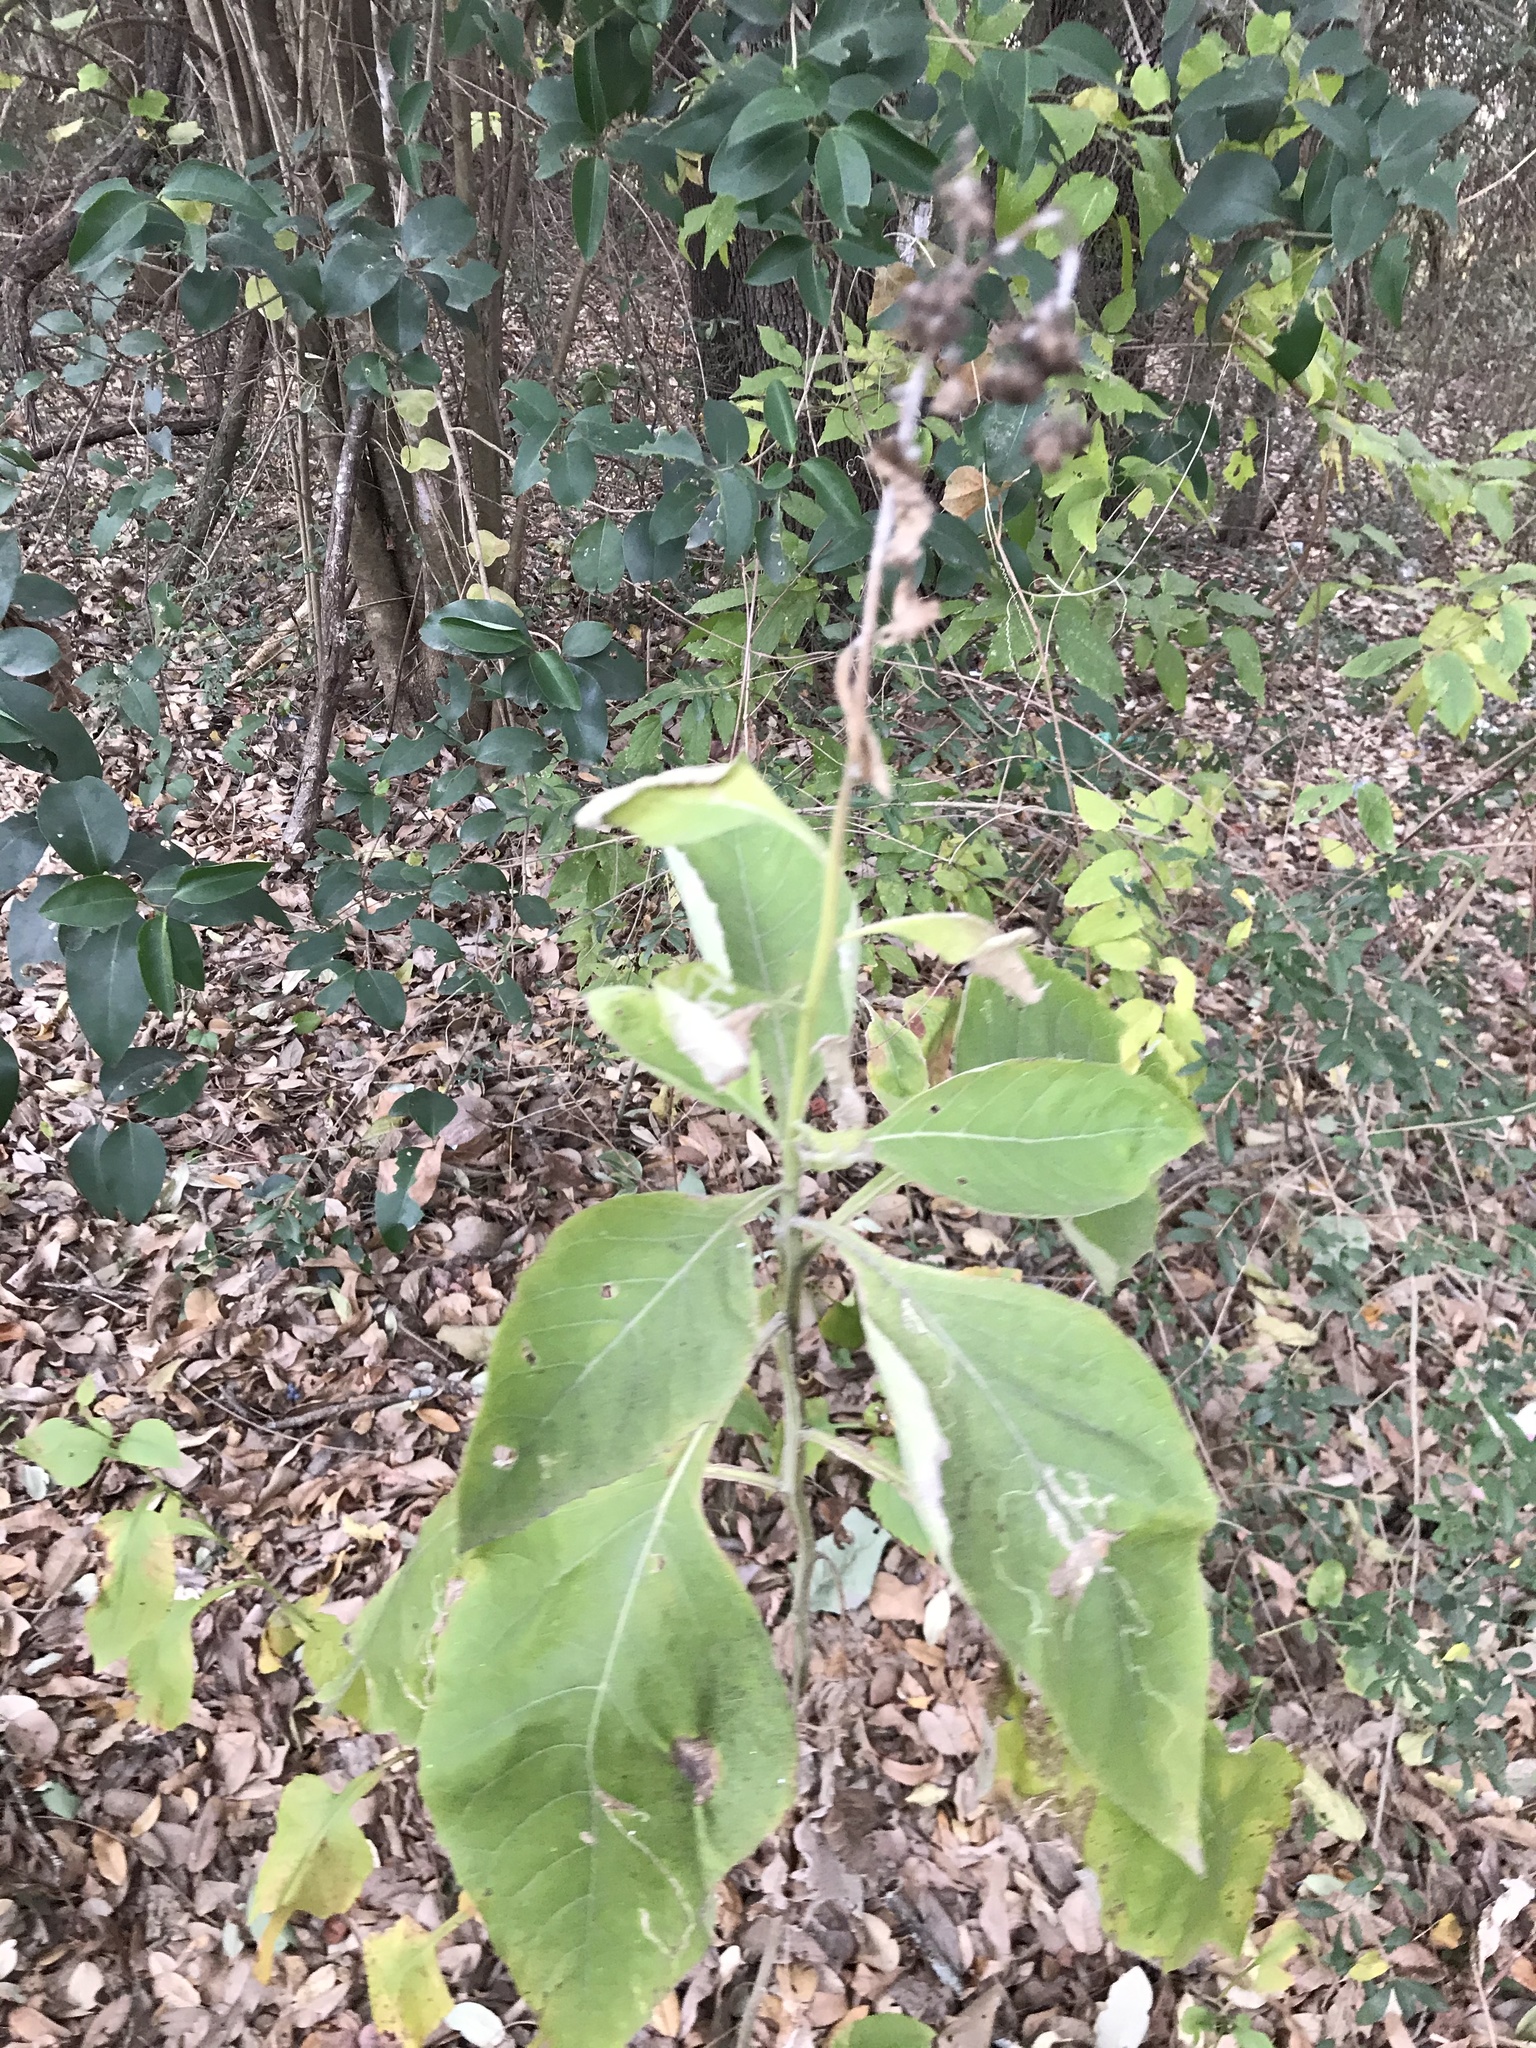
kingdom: Plantae
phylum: Tracheophyta
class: Magnoliopsida
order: Asterales
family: Asteraceae
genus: Verbesina
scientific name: Verbesina virginica
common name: Frostweed
